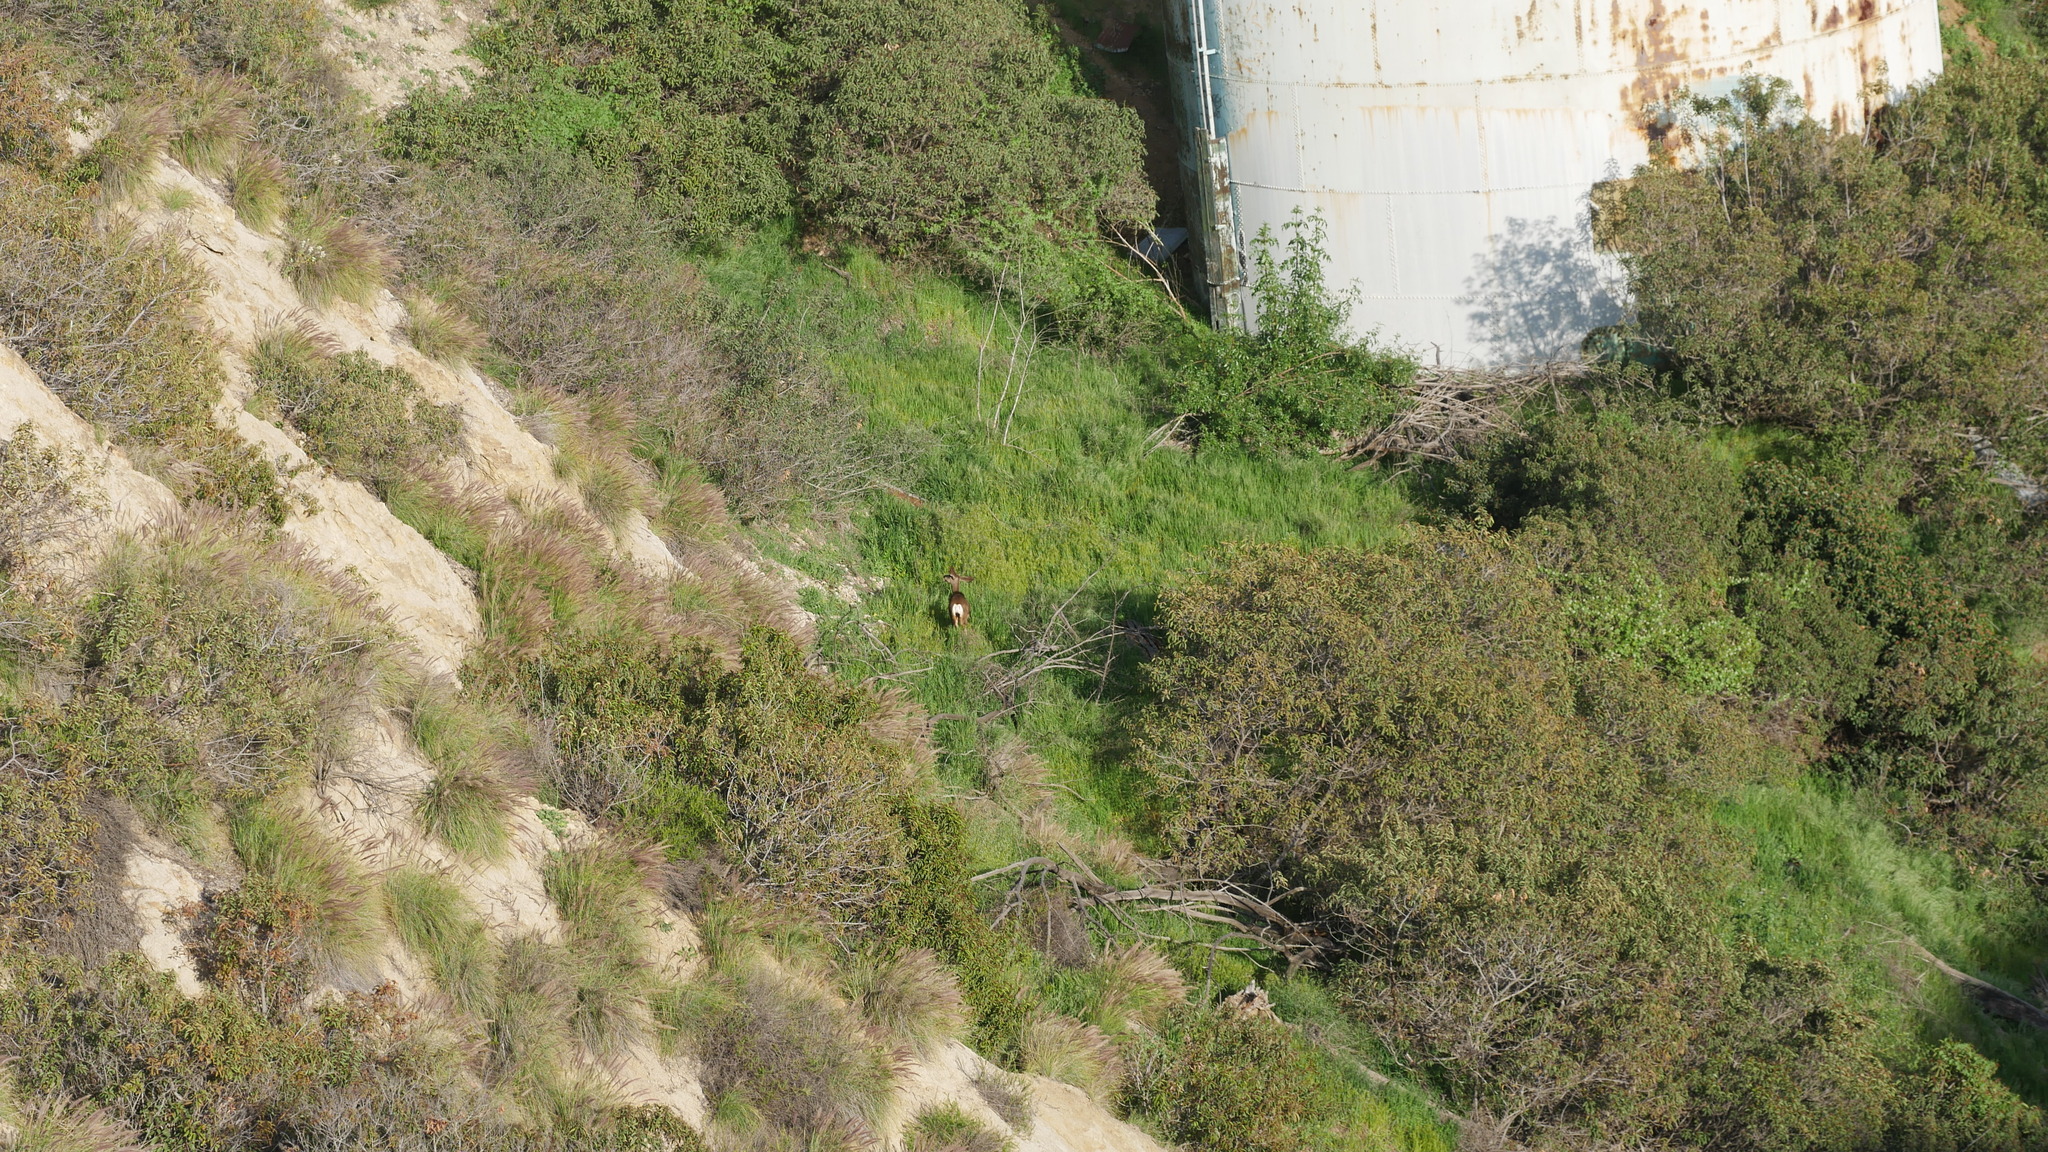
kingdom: Animalia
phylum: Chordata
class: Mammalia
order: Artiodactyla
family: Cervidae
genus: Odocoileus
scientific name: Odocoileus hemionus
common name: Mule deer
